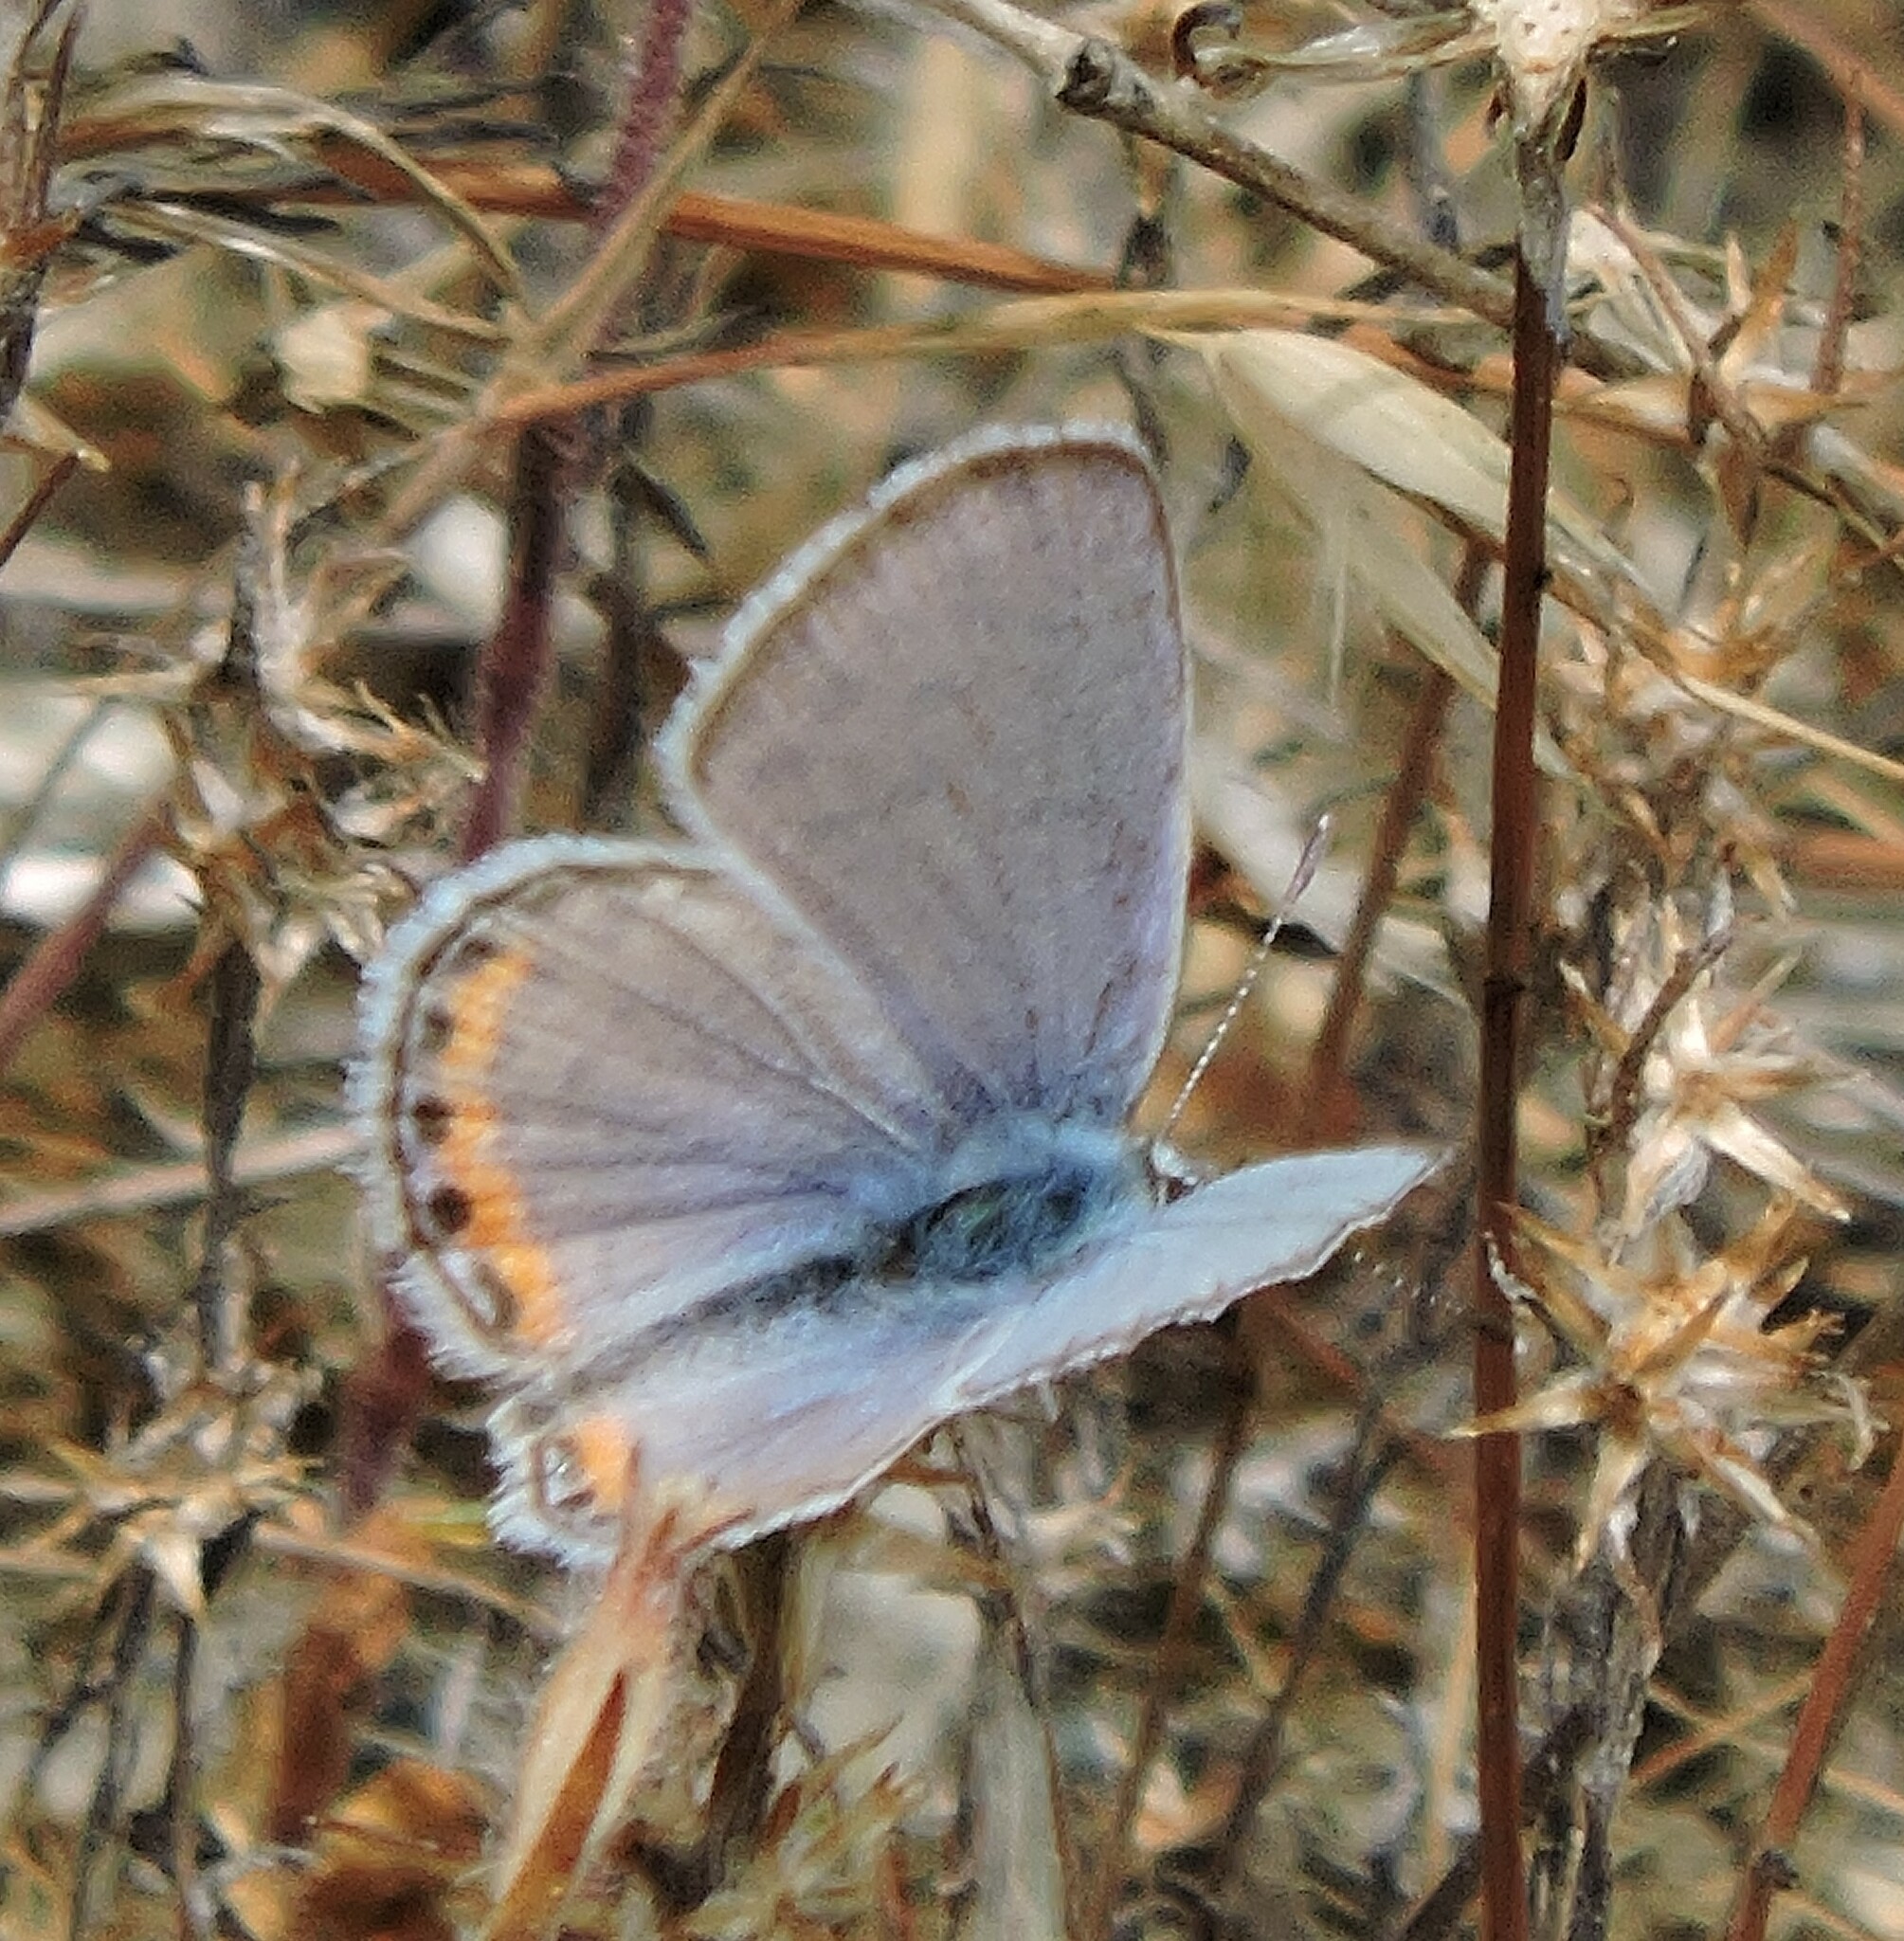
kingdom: Animalia
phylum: Arthropoda
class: Insecta
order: Lepidoptera
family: Lycaenidae
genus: Icaricia
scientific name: Icaricia acmon
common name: Acmon blue
